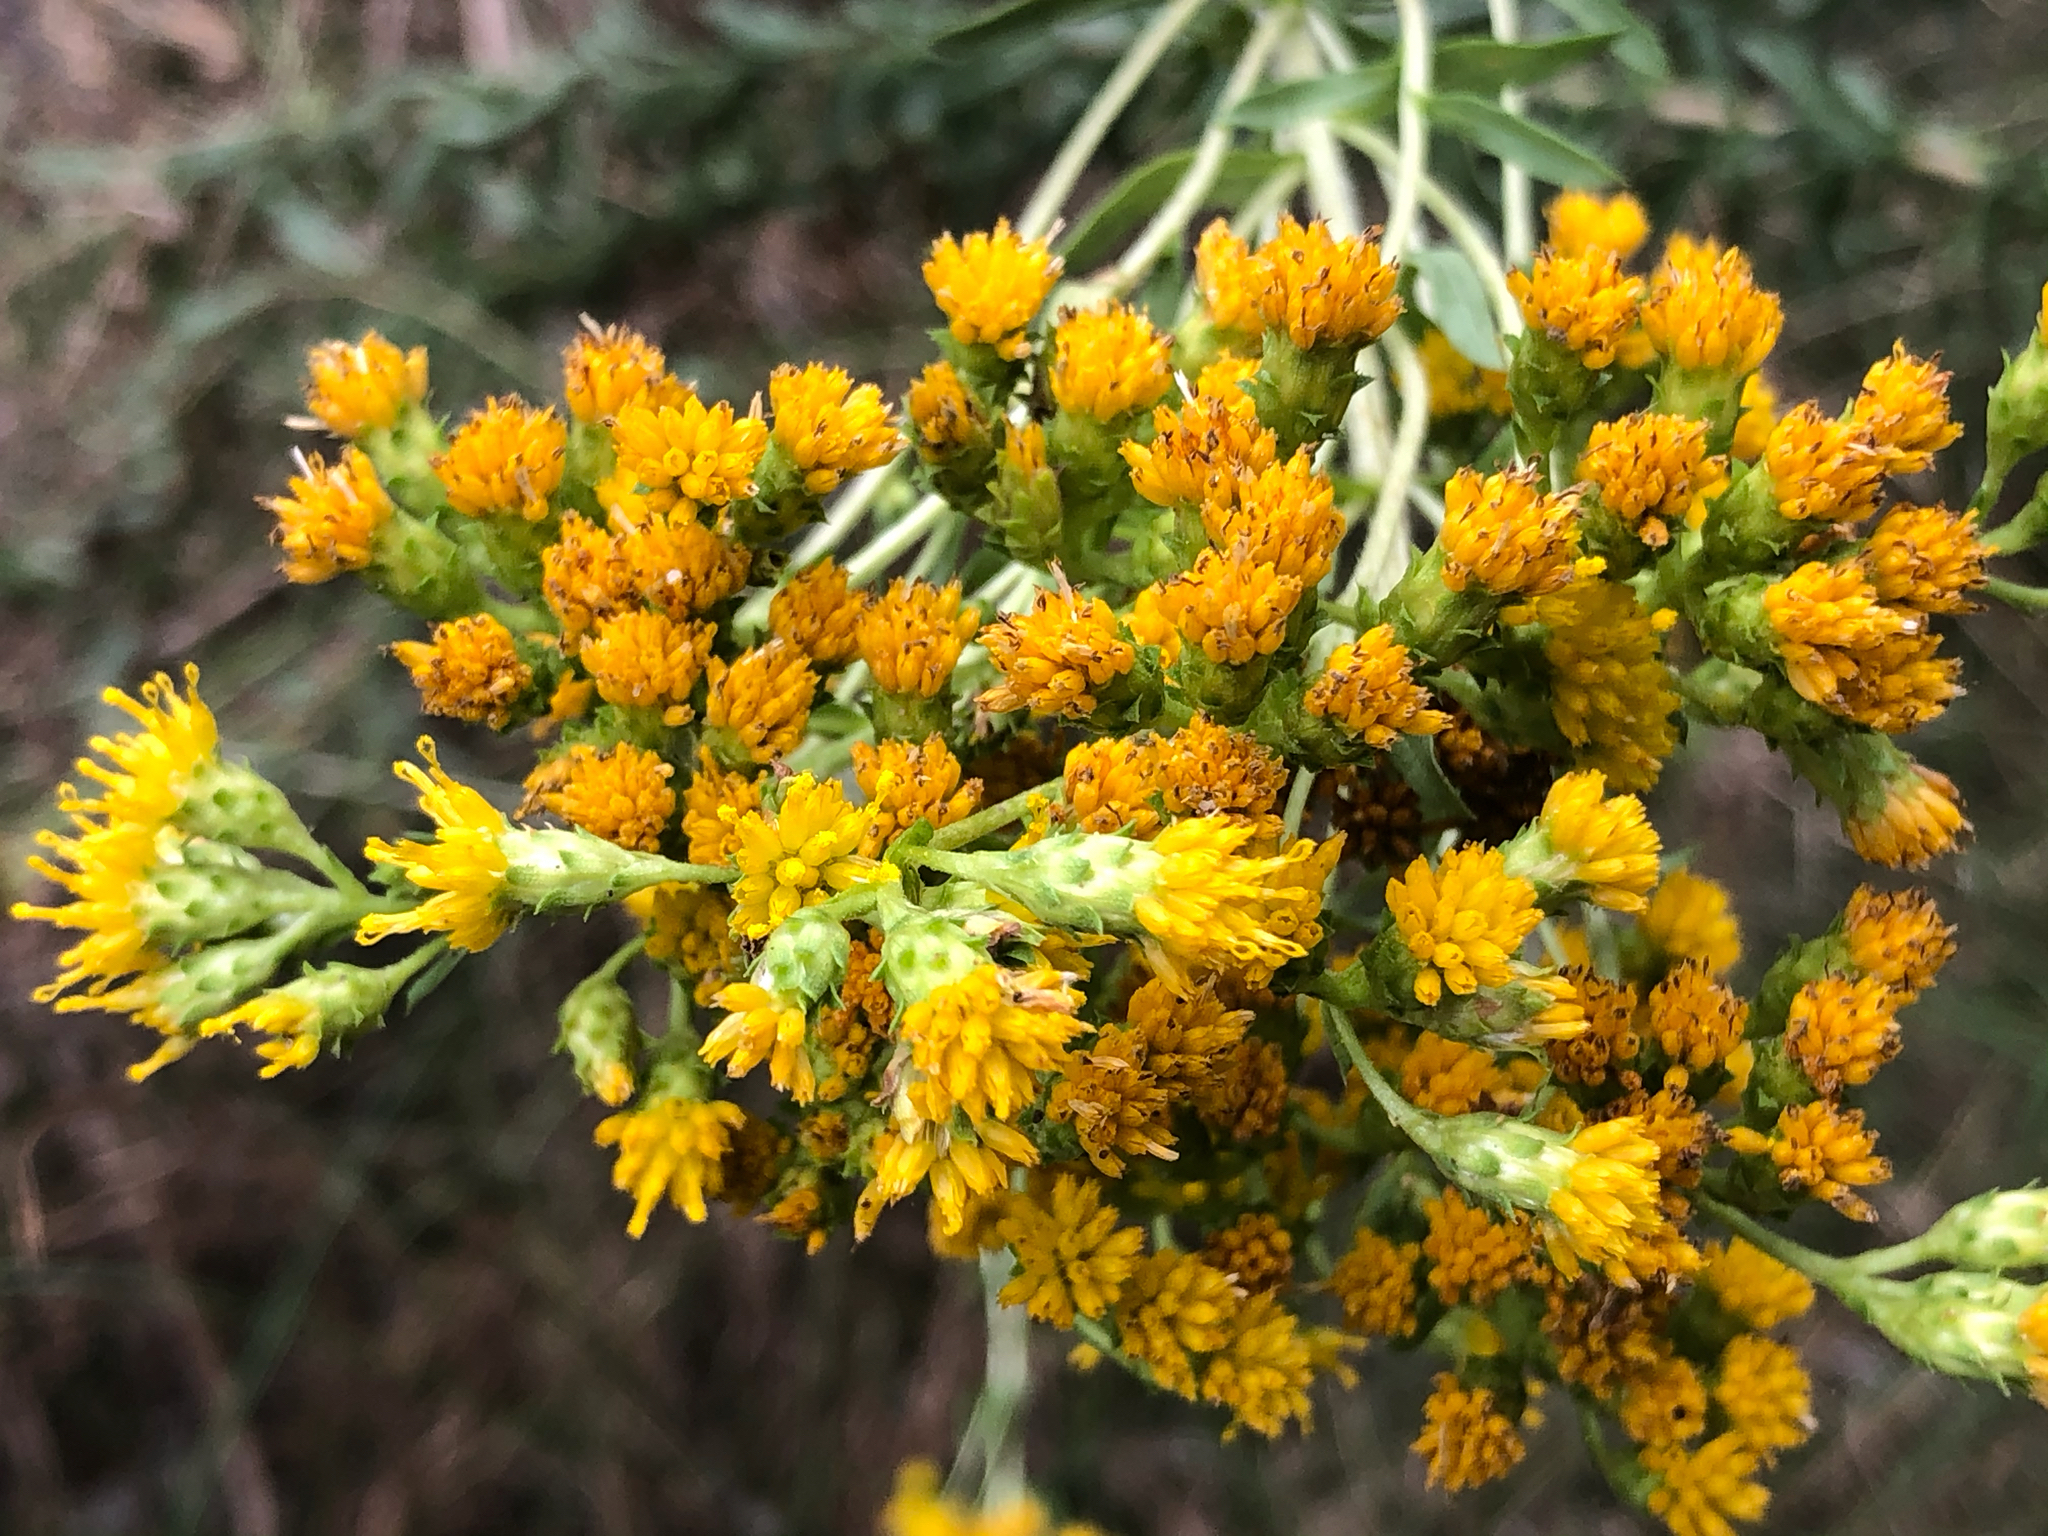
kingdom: Plantae
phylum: Tracheophyta
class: Magnoliopsida
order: Asterales
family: Asteraceae
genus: Isocoma
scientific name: Isocoma menziesii
